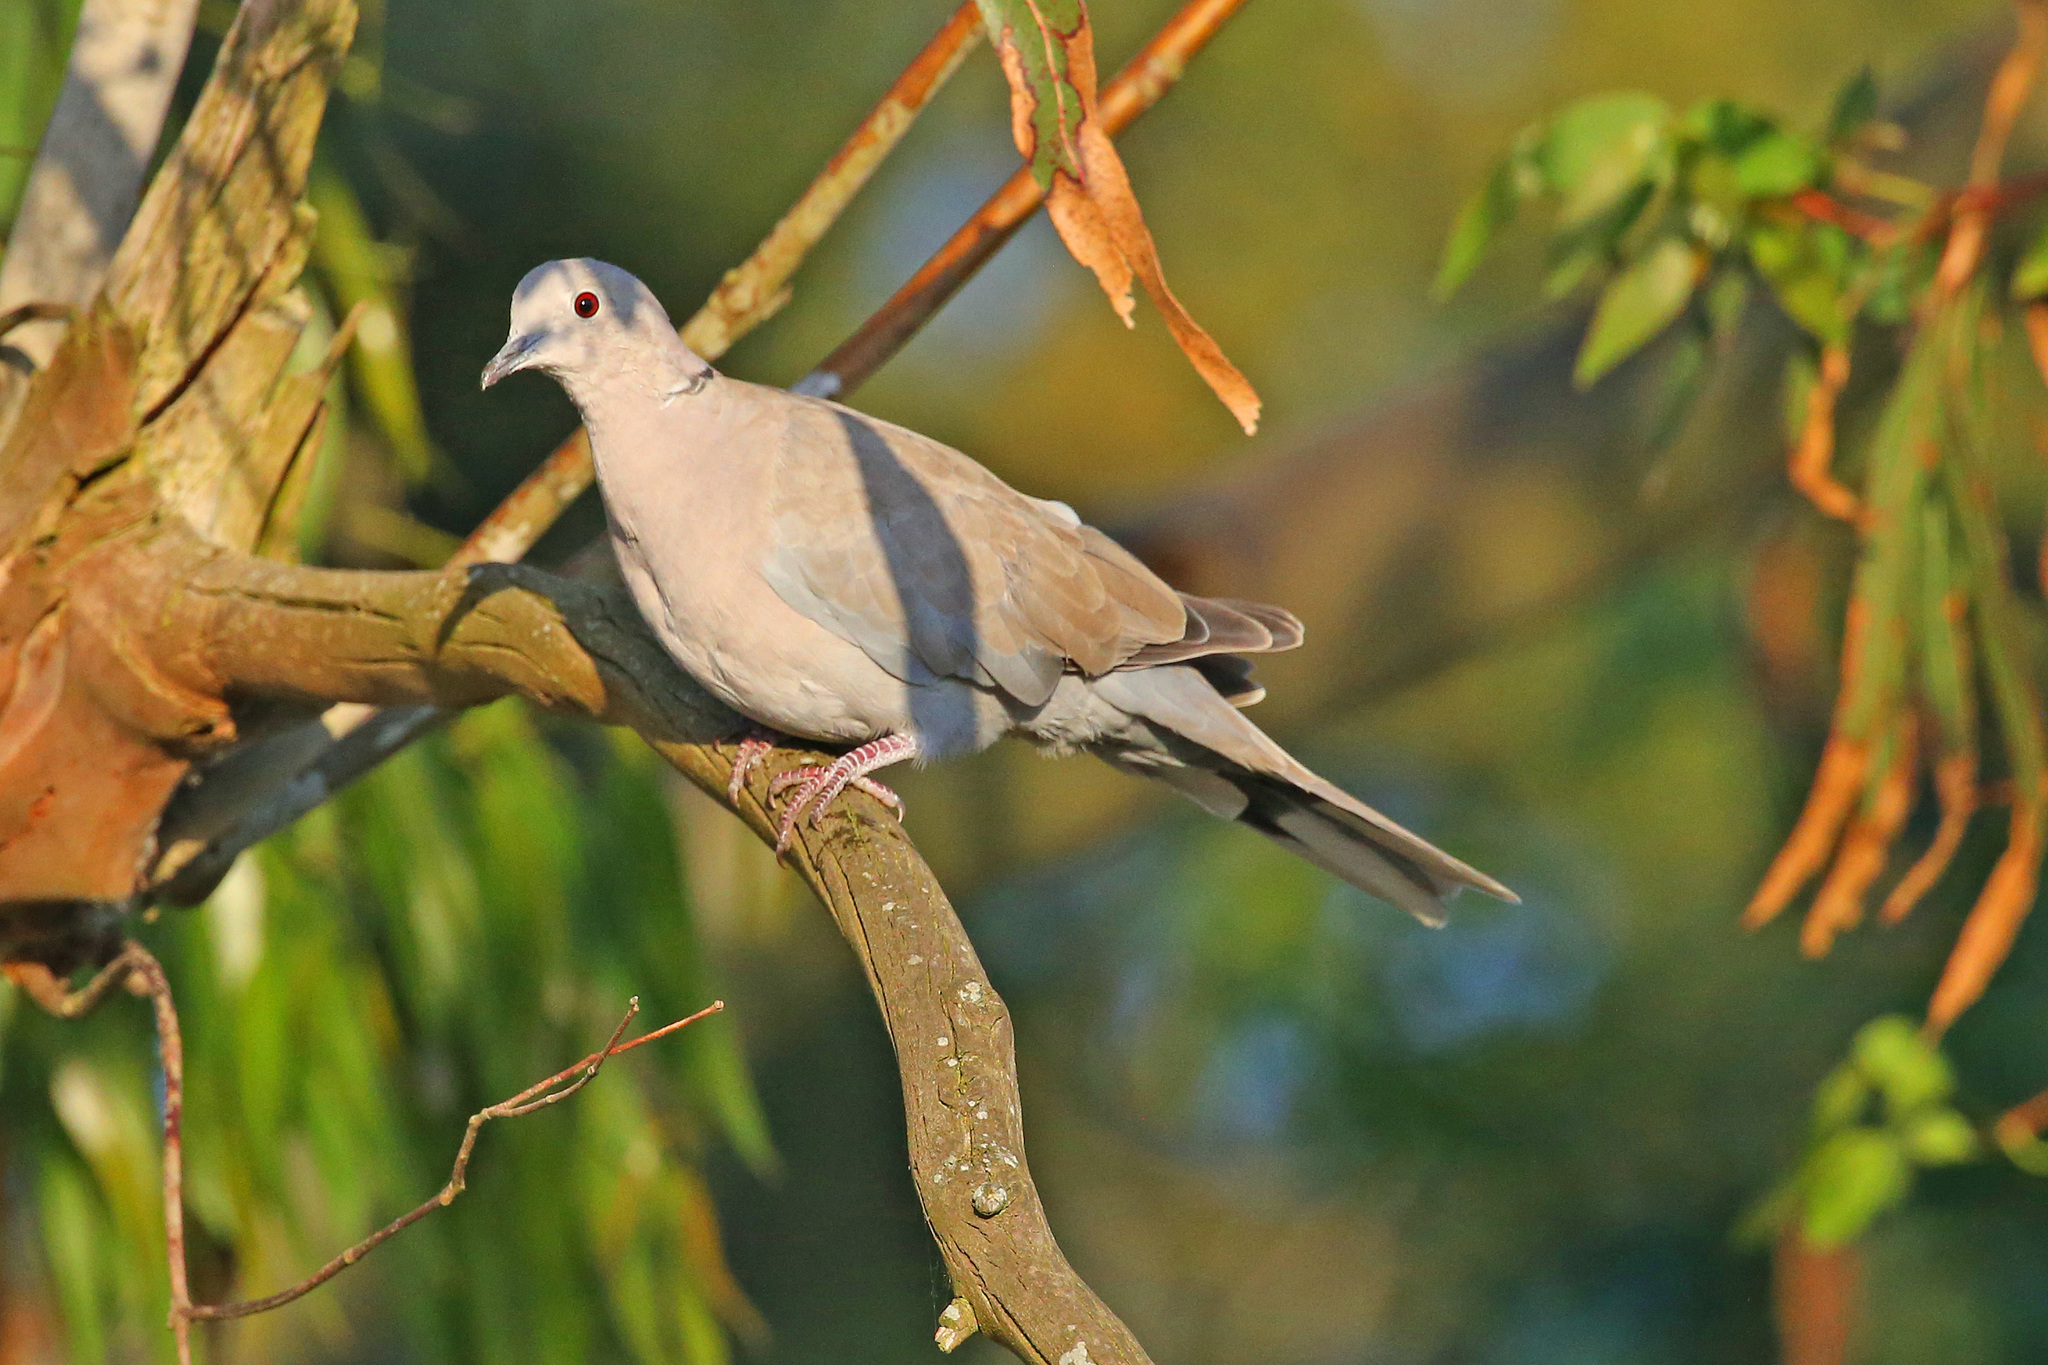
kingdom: Animalia
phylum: Chordata
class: Aves
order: Columbiformes
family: Columbidae
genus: Streptopelia
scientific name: Streptopelia decaocto
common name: Eurasian collared dove
